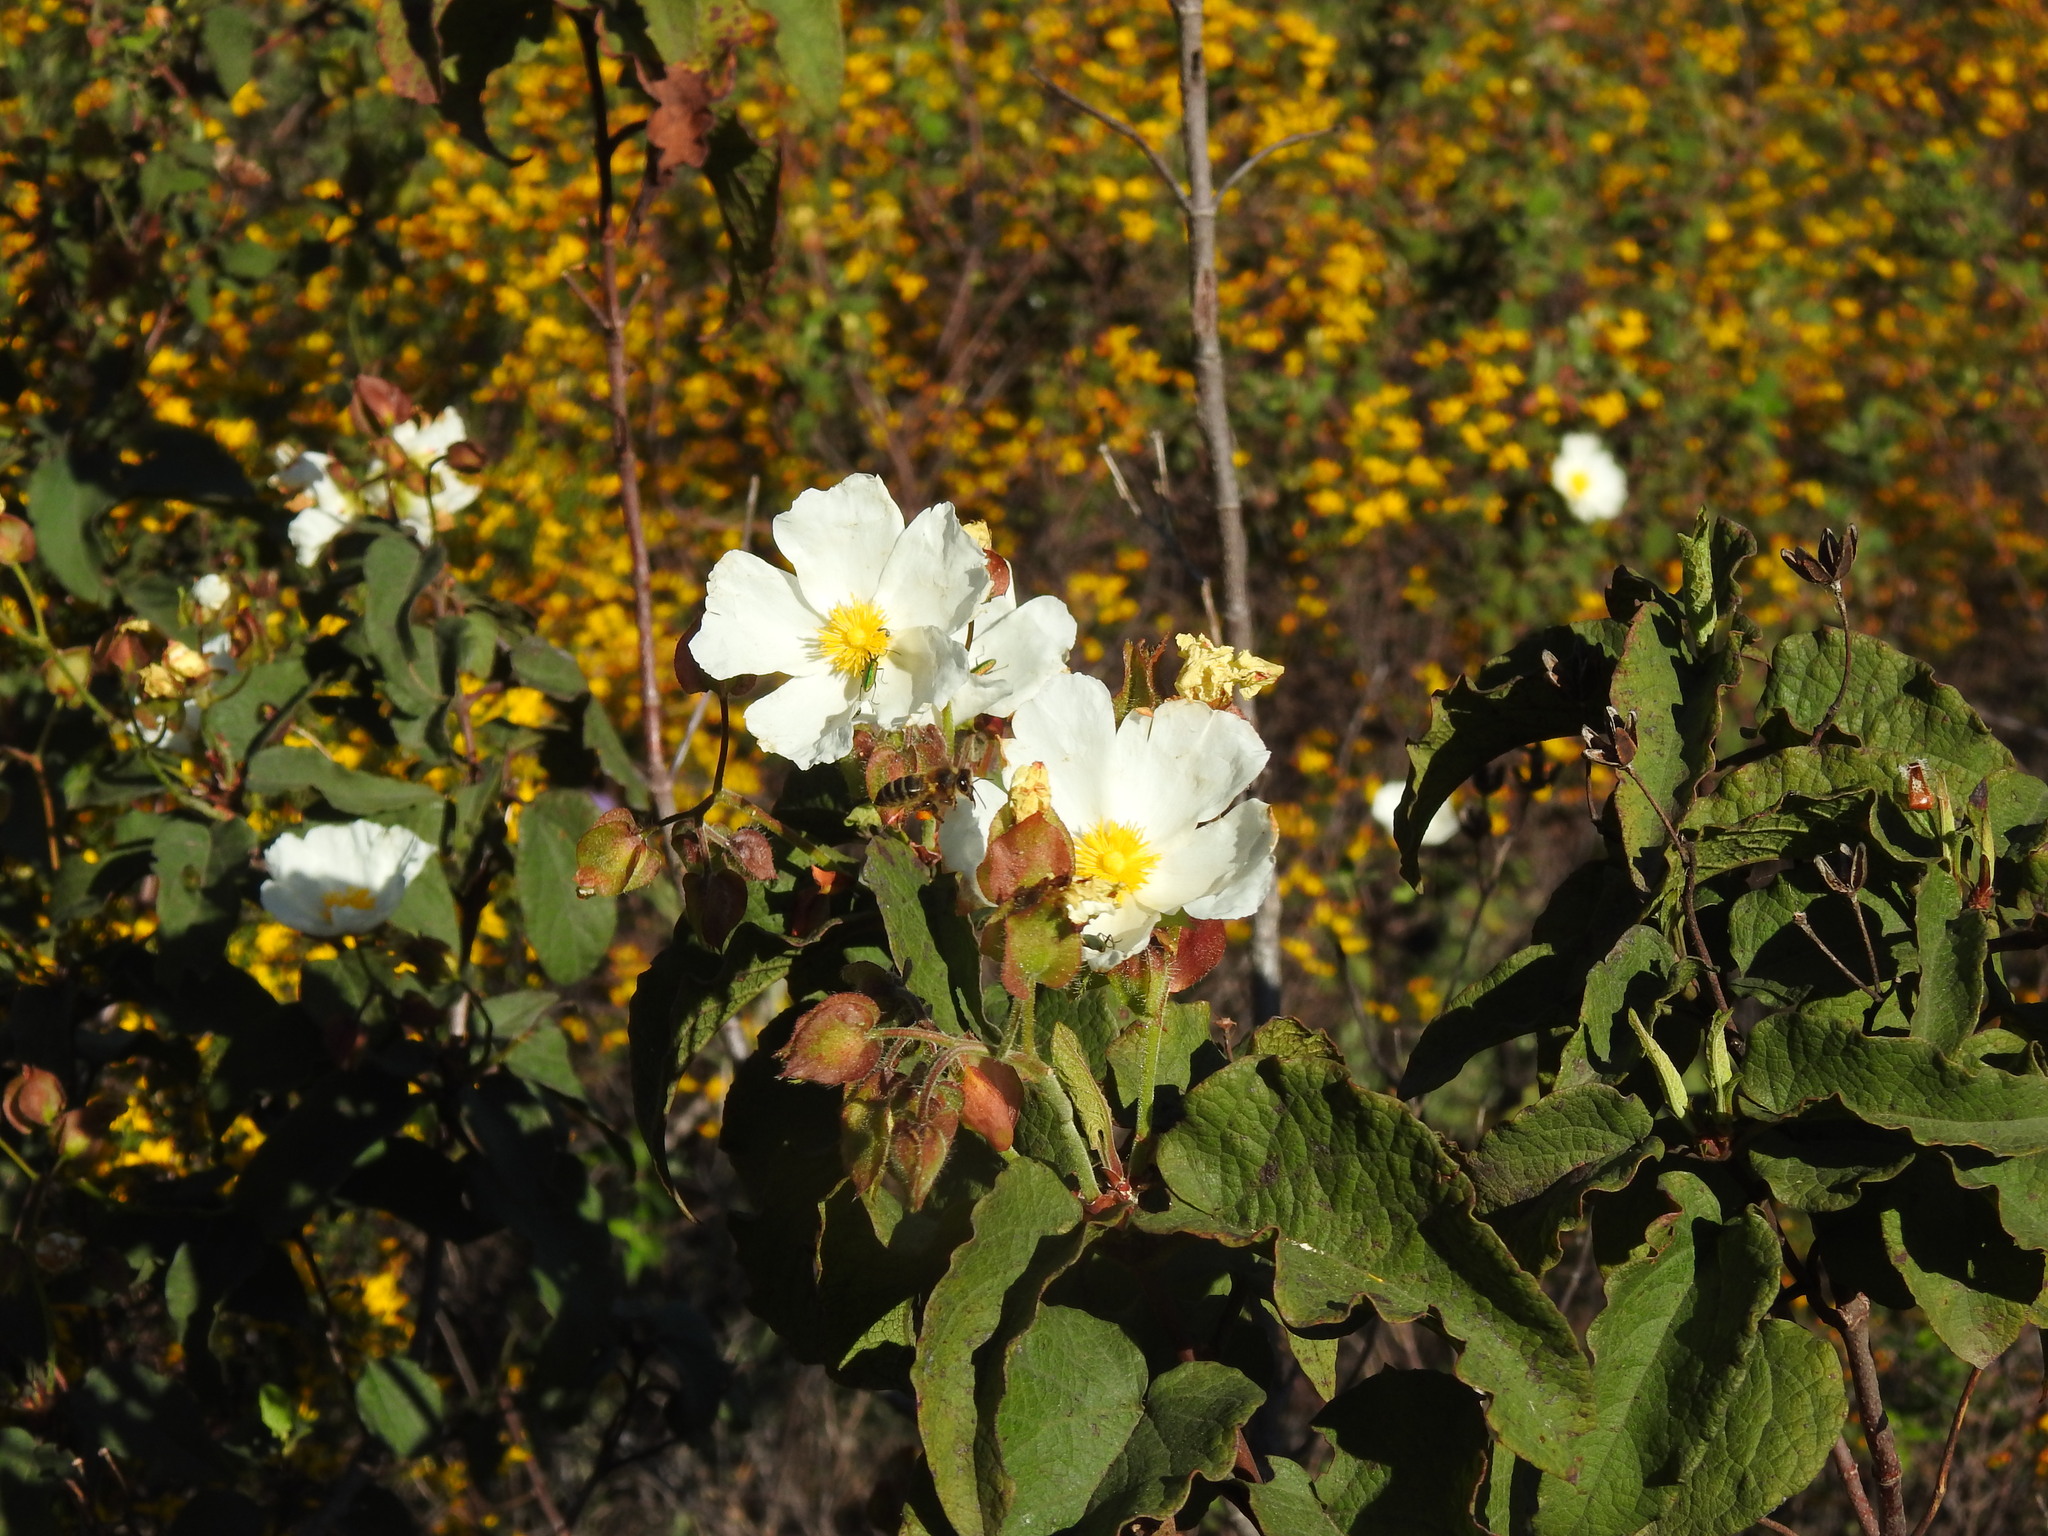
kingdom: Plantae
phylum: Tracheophyta
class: Magnoliopsida
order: Malvales
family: Cistaceae
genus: Cistus
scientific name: Cistus populifolius
